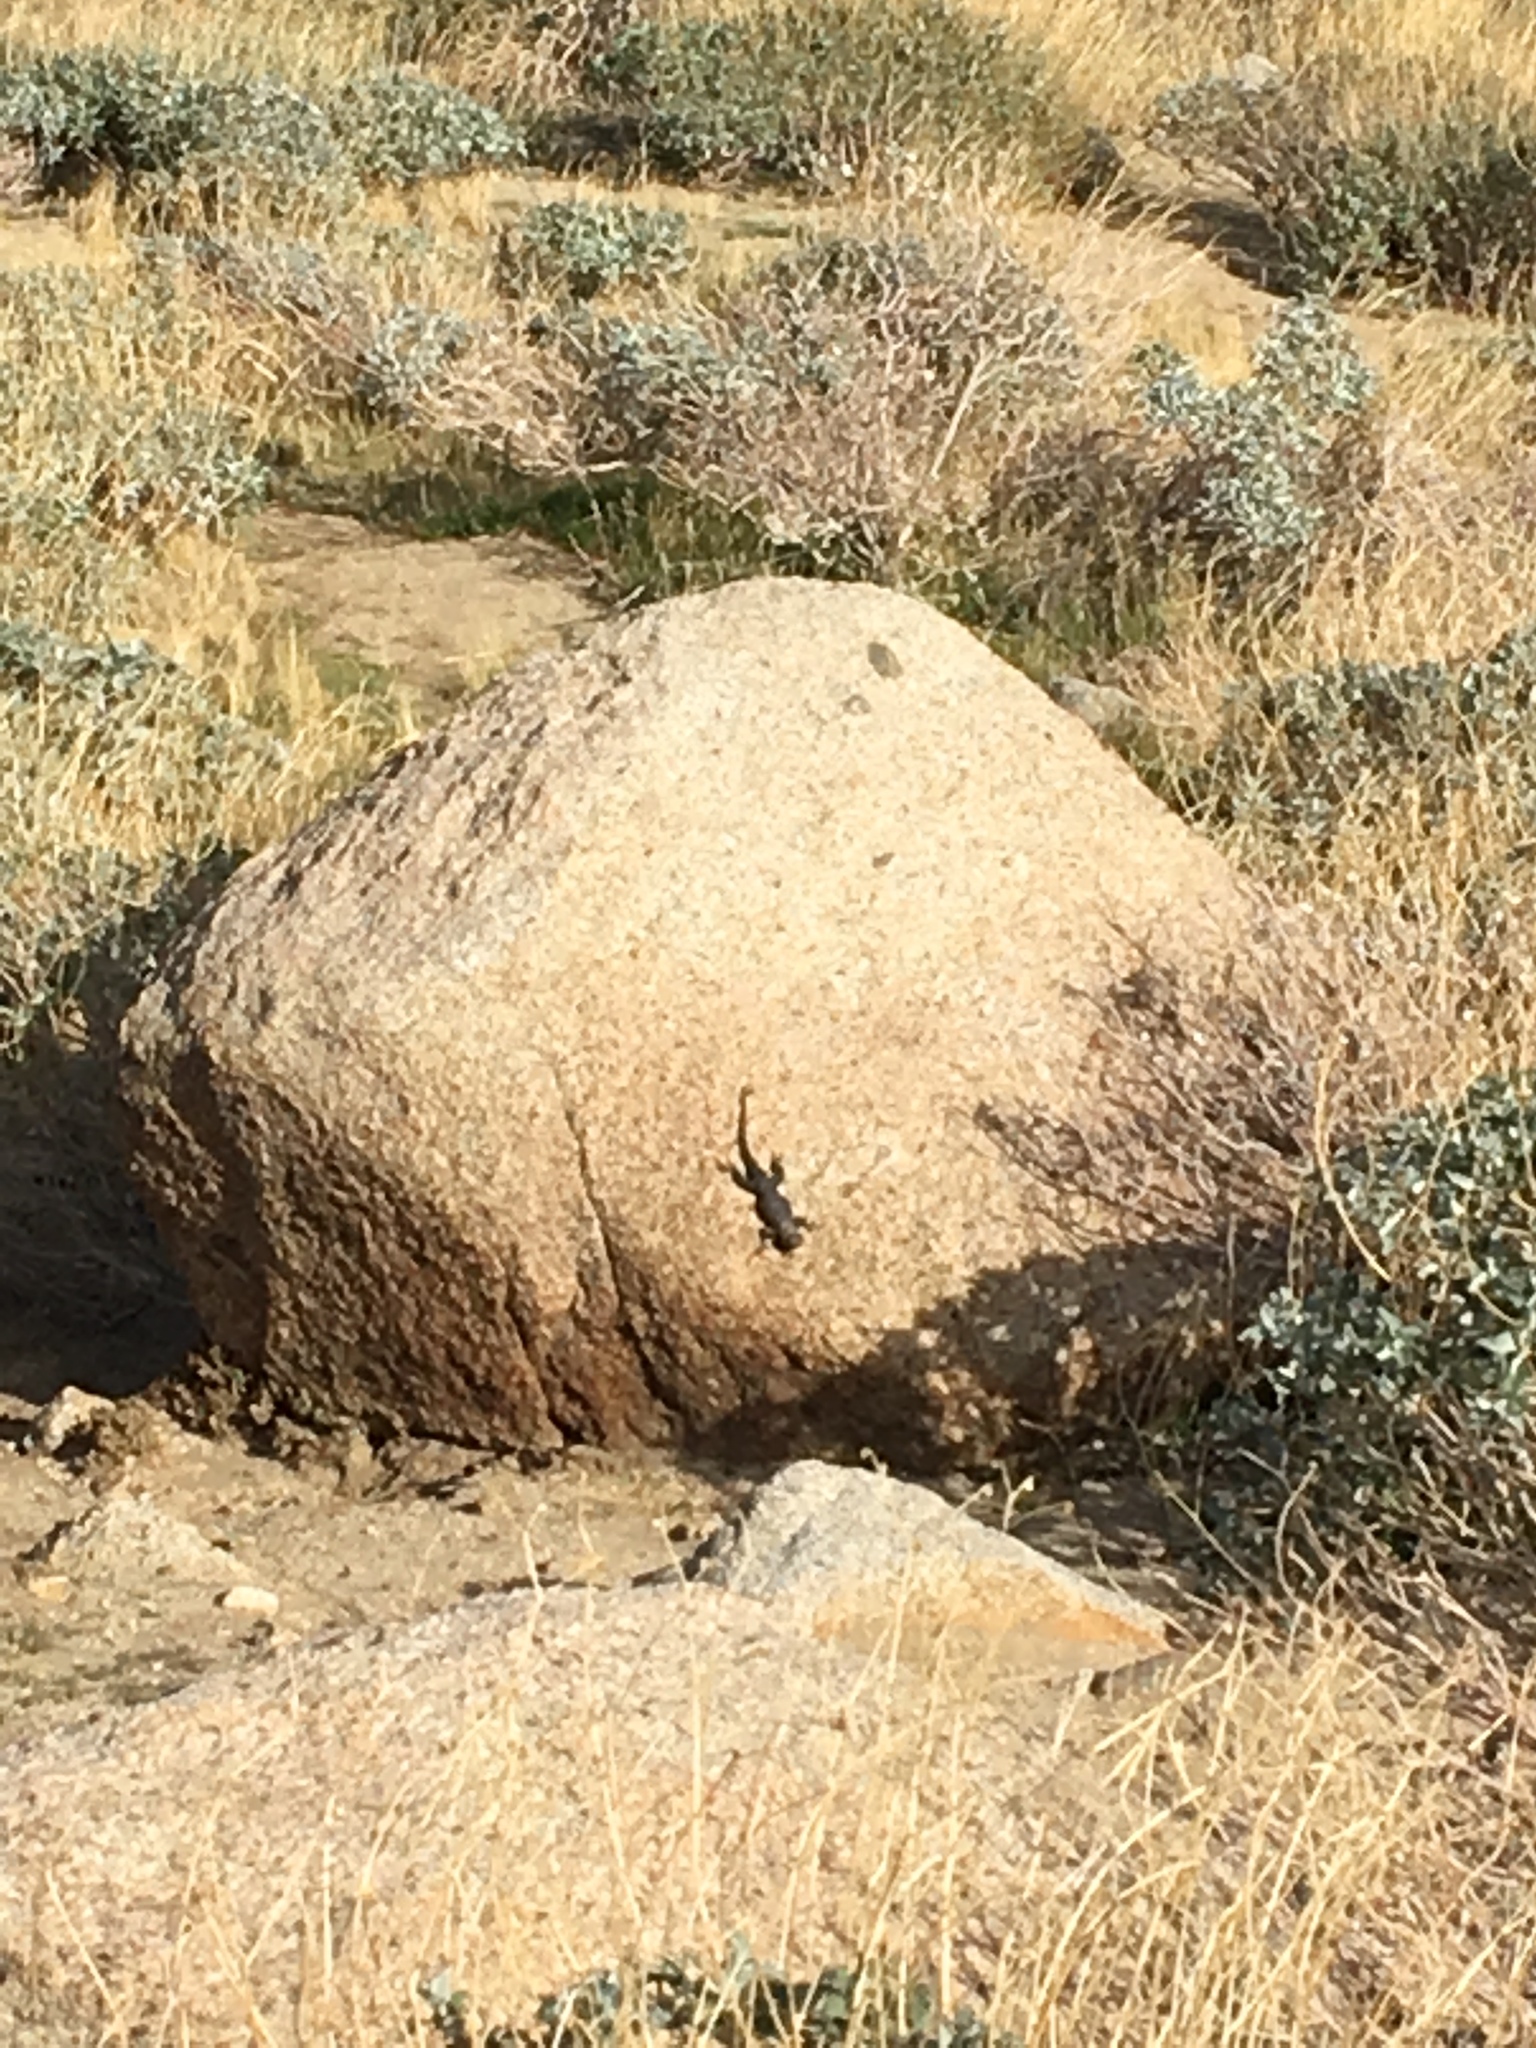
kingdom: Animalia
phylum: Chordata
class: Squamata
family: Phrynosomatidae
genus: Sceloporus
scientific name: Sceloporus orcutti
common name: Granite spiny lizard
